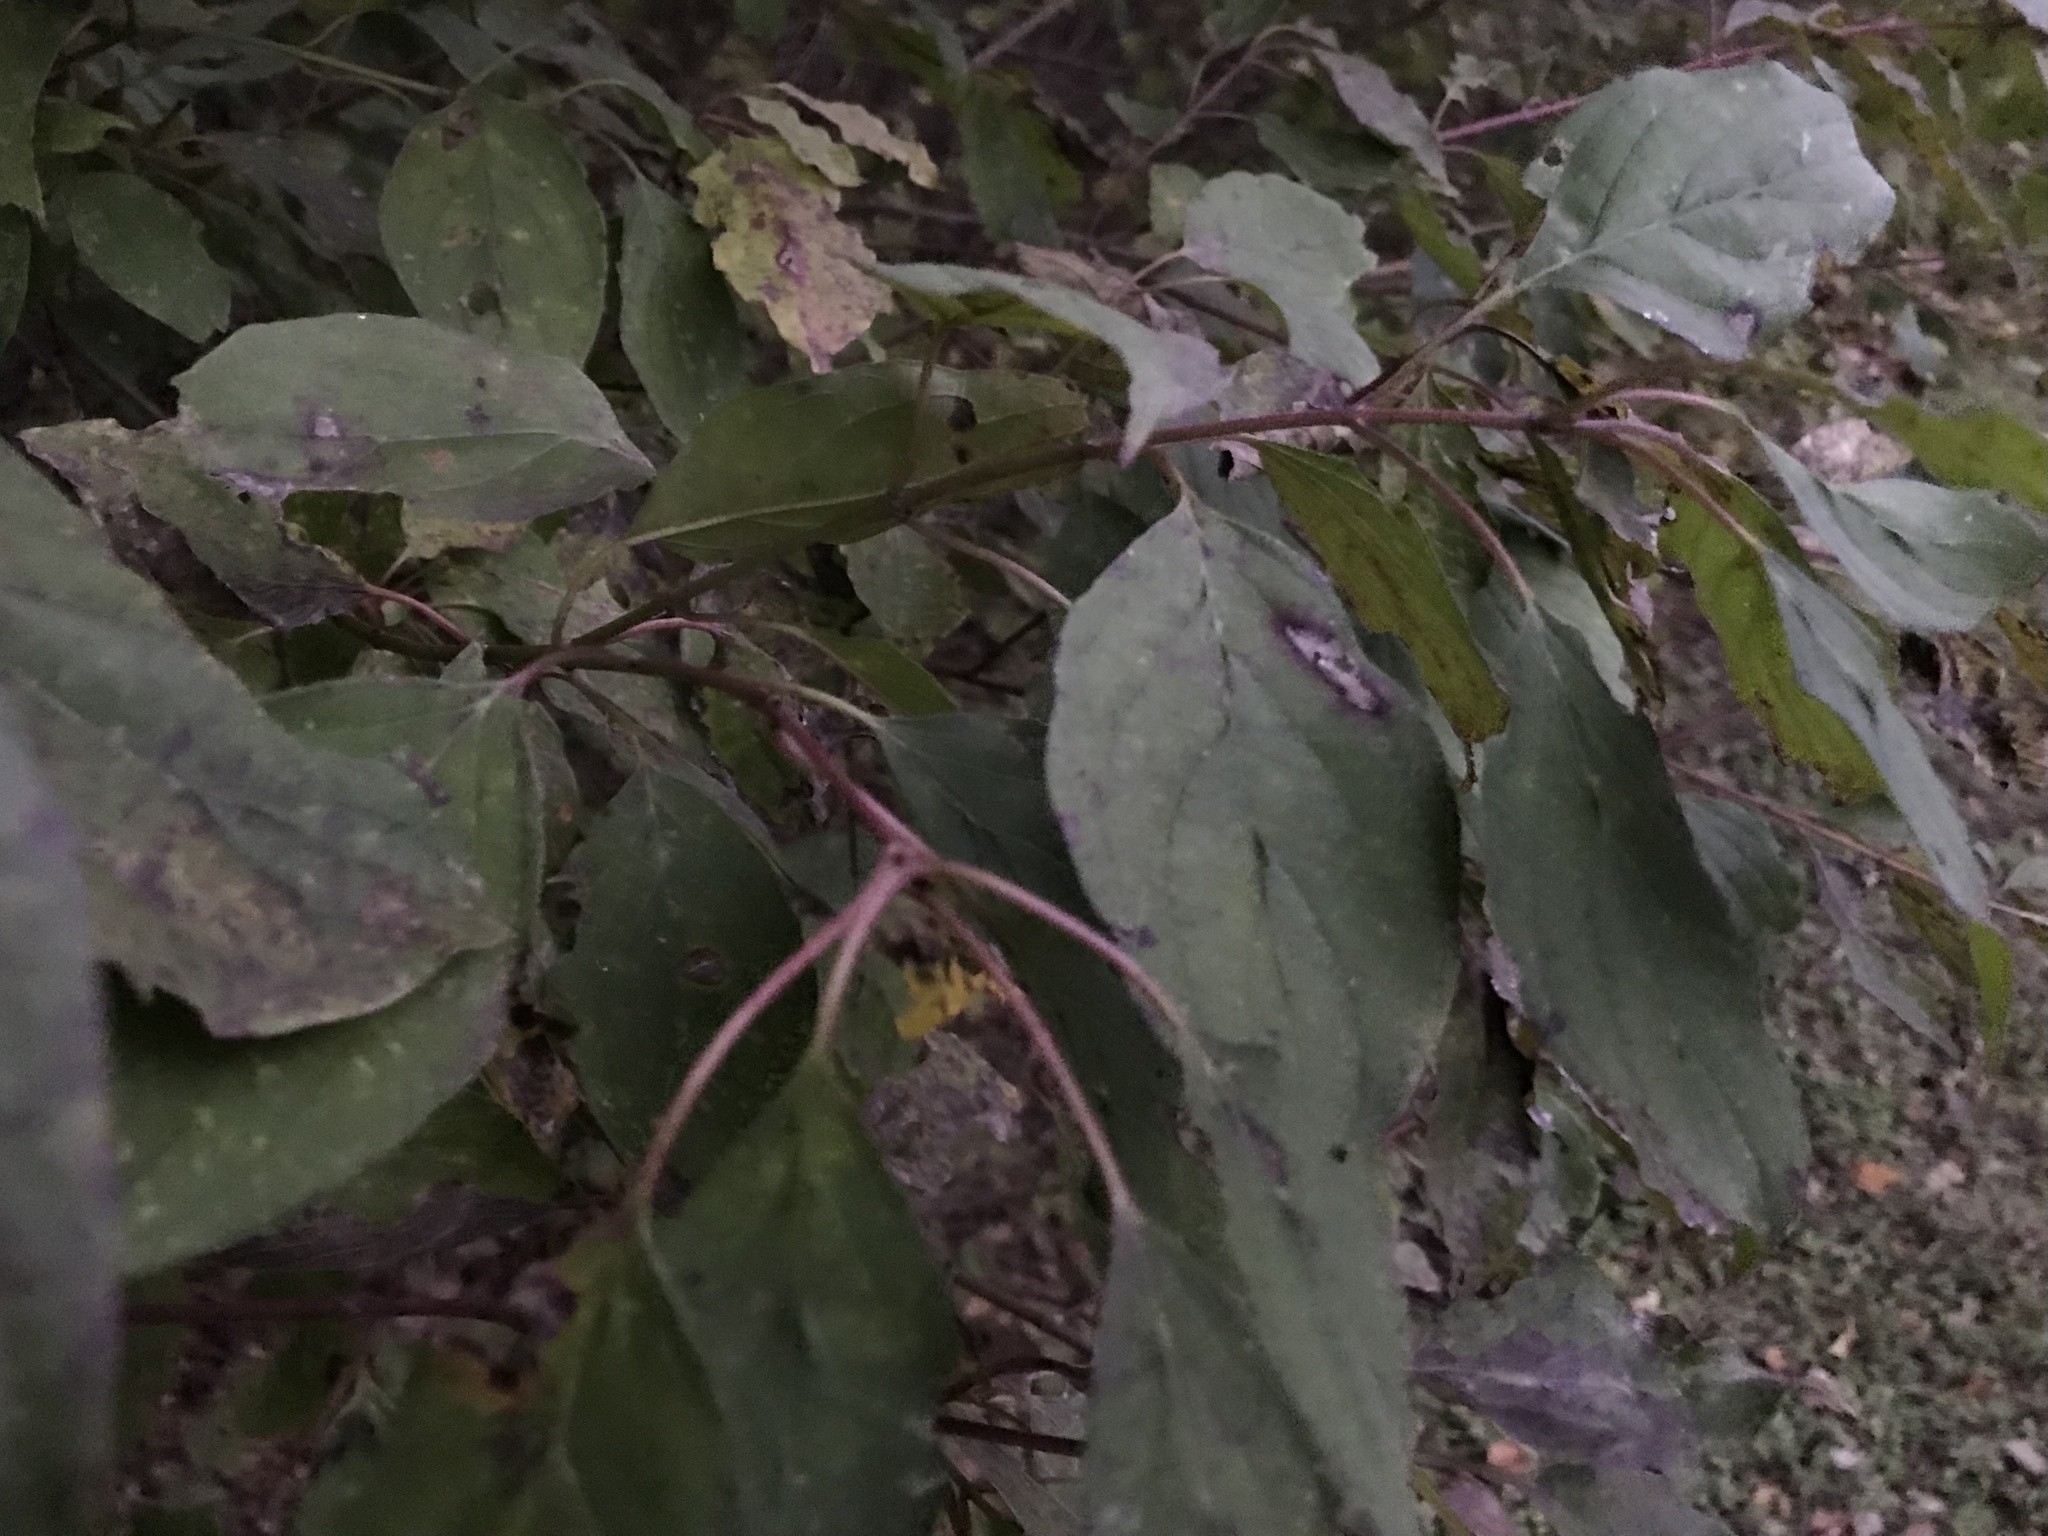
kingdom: Plantae
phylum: Tracheophyta
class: Magnoliopsida
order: Cornales
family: Cornaceae
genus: Cornus
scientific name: Cornus drummondii
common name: Rough-leaf dogwood
